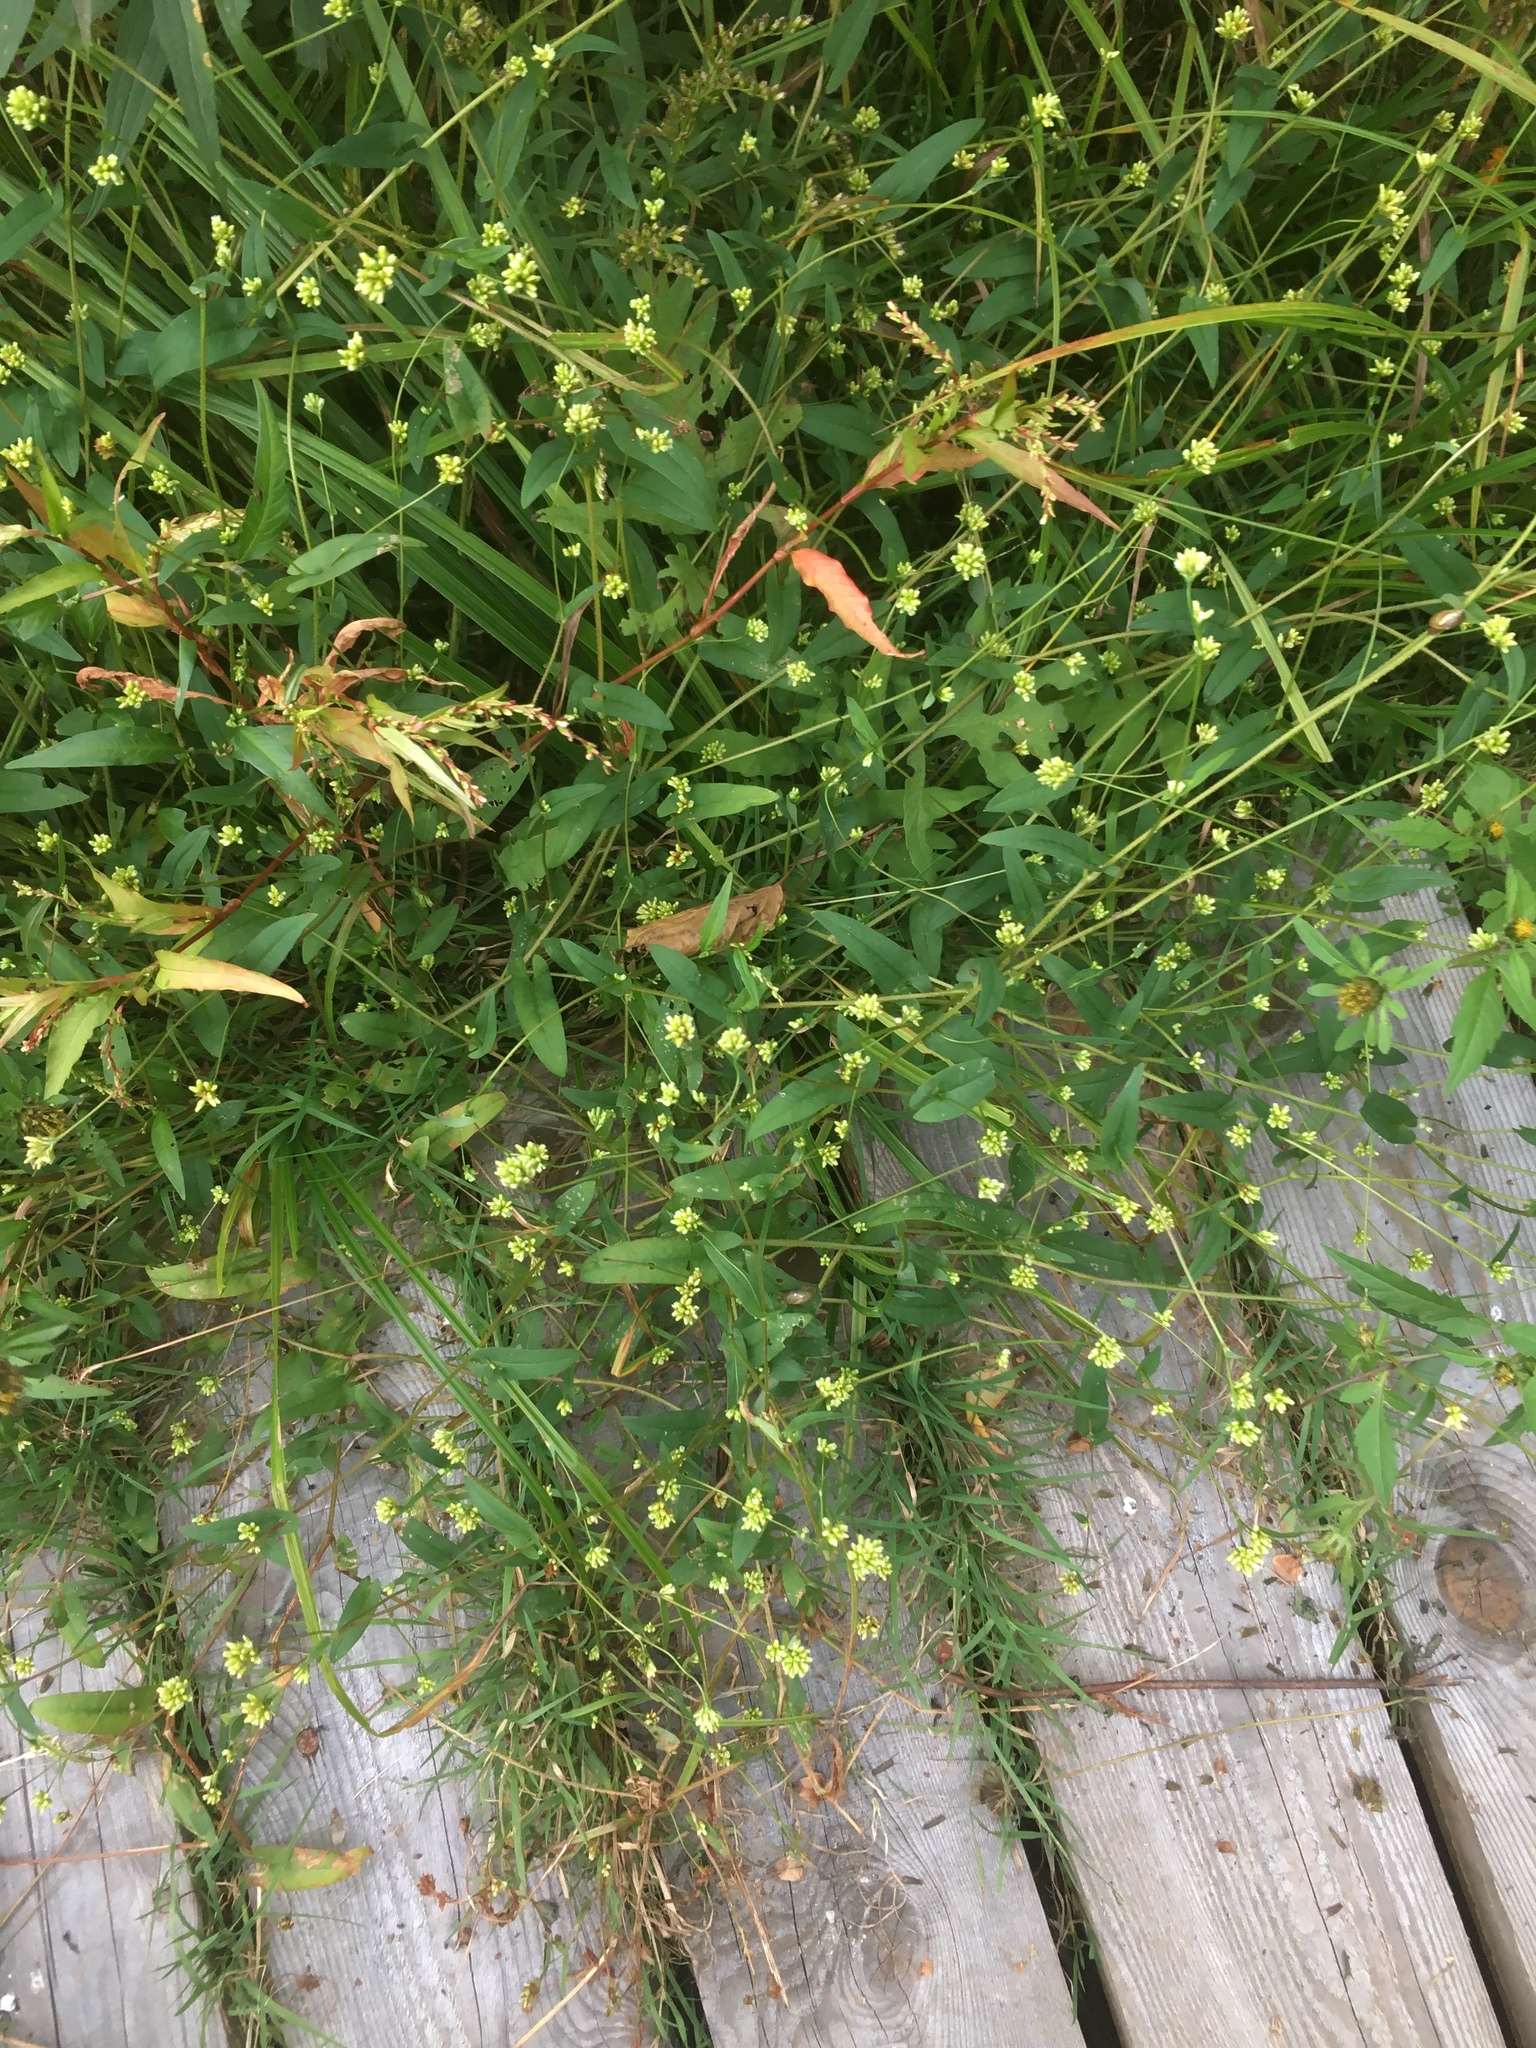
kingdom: Plantae
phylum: Tracheophyta
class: Magnoliopsida
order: Caryophyllales
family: Polygonaceae
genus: Persicaria
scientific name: Persicaria sagittata
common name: American tearthumb
